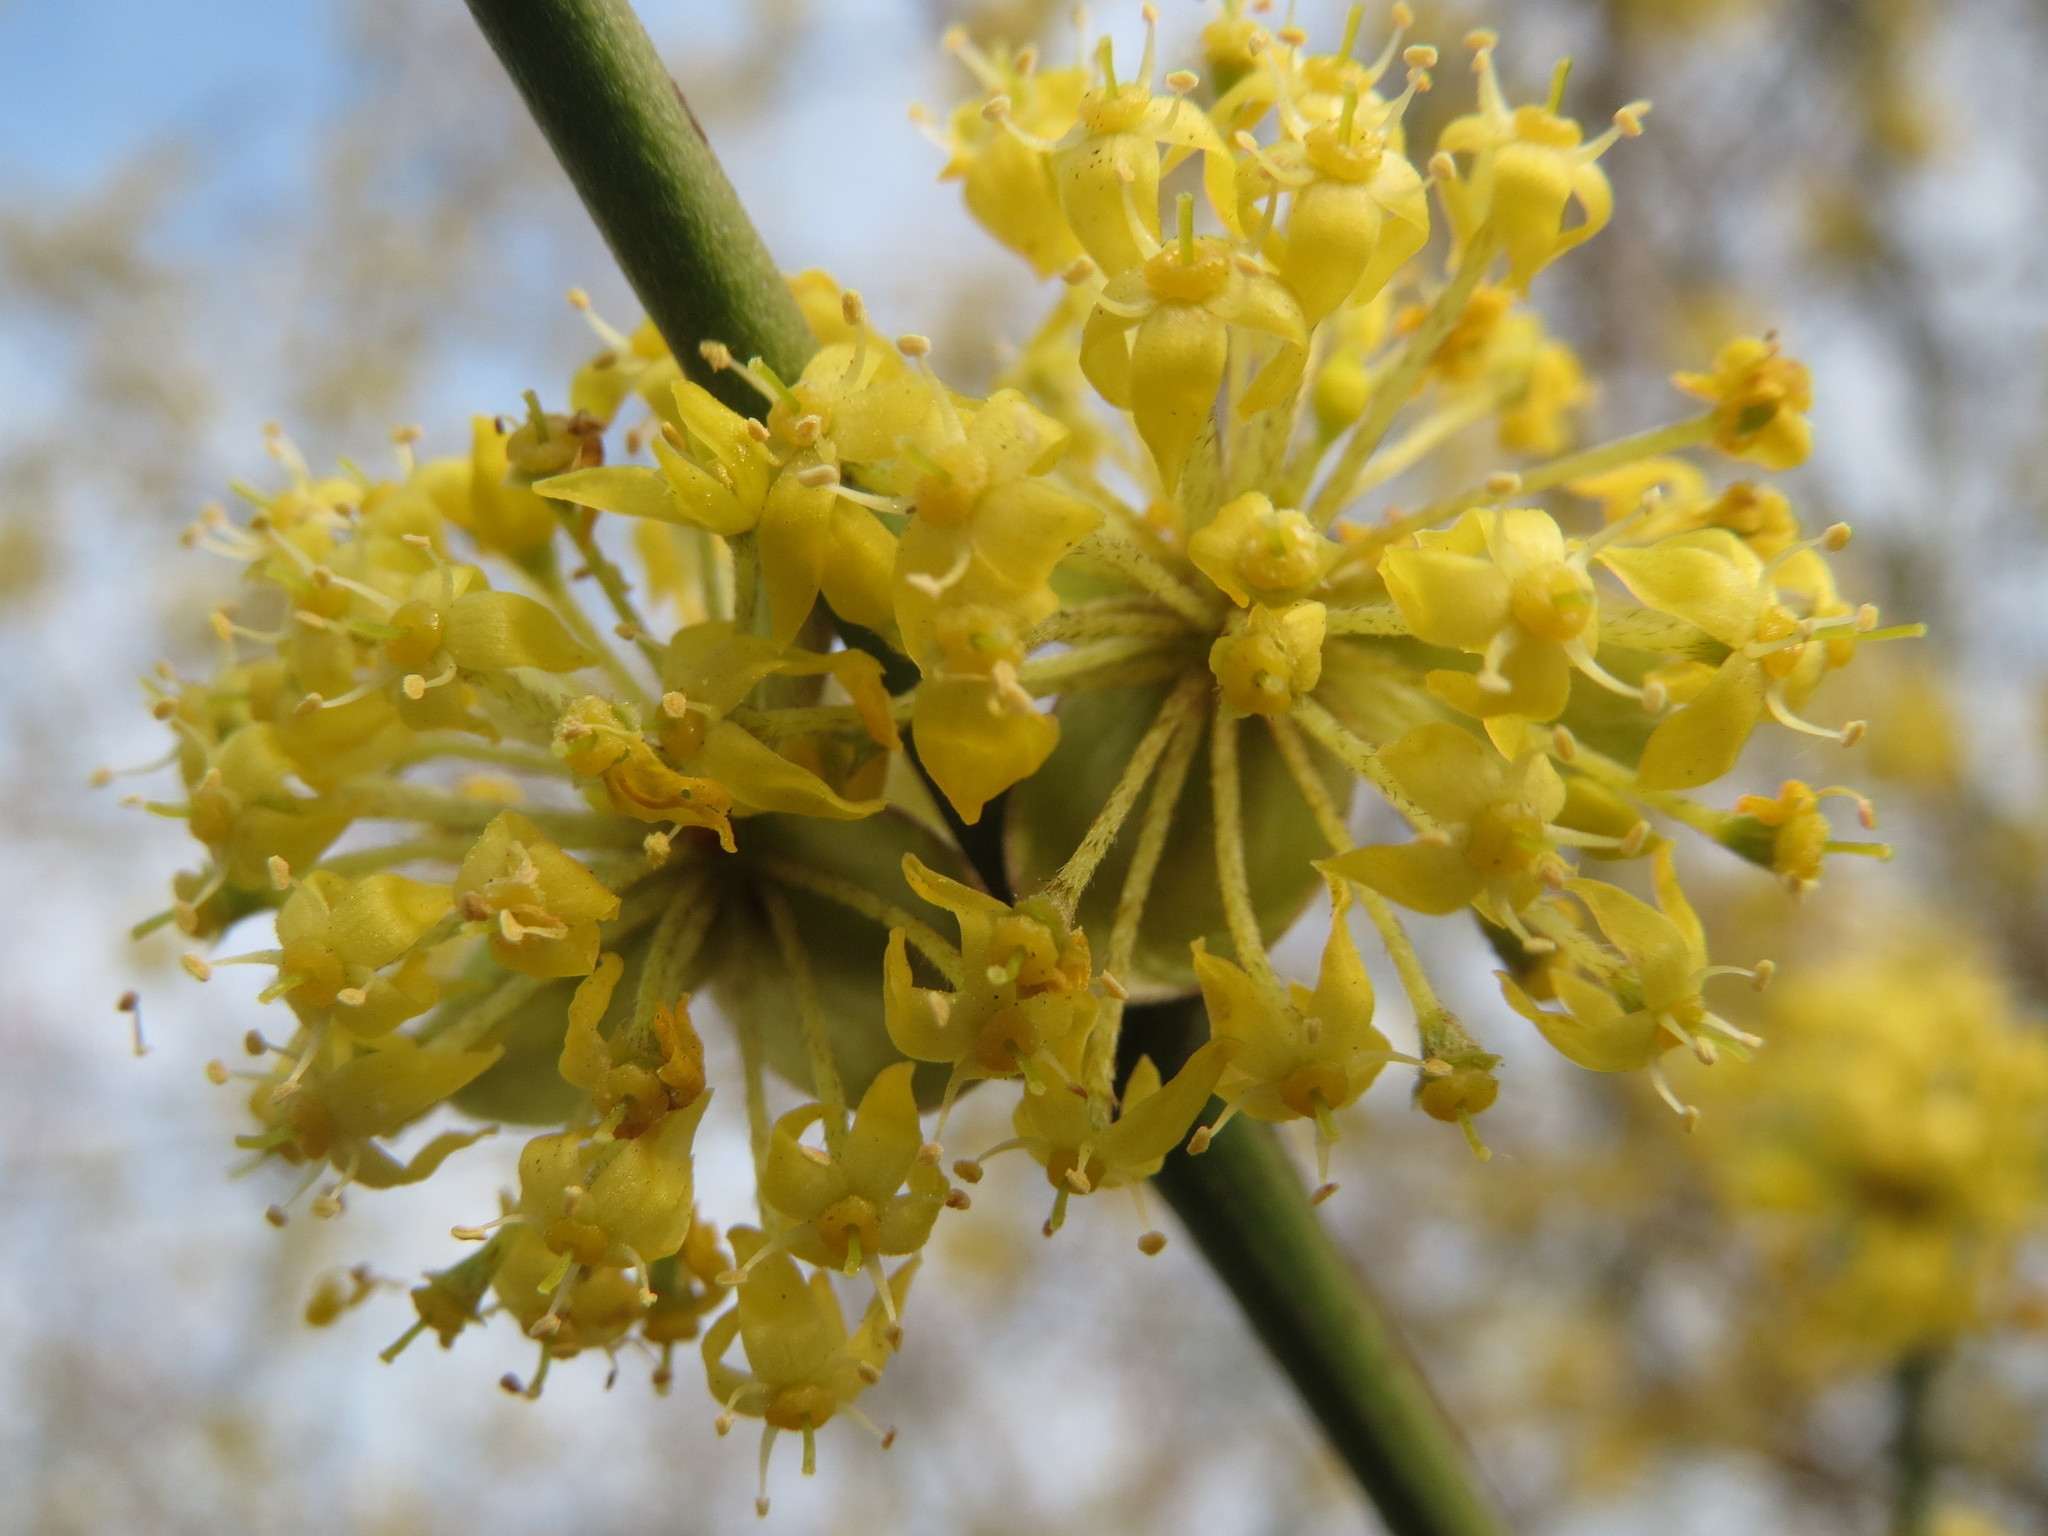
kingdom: Plantae
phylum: Tracheophyta
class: Magnoliopsida
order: Cornales
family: Cornaceae
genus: Cornus
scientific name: Cornus mas
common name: Cornelian-cherry
